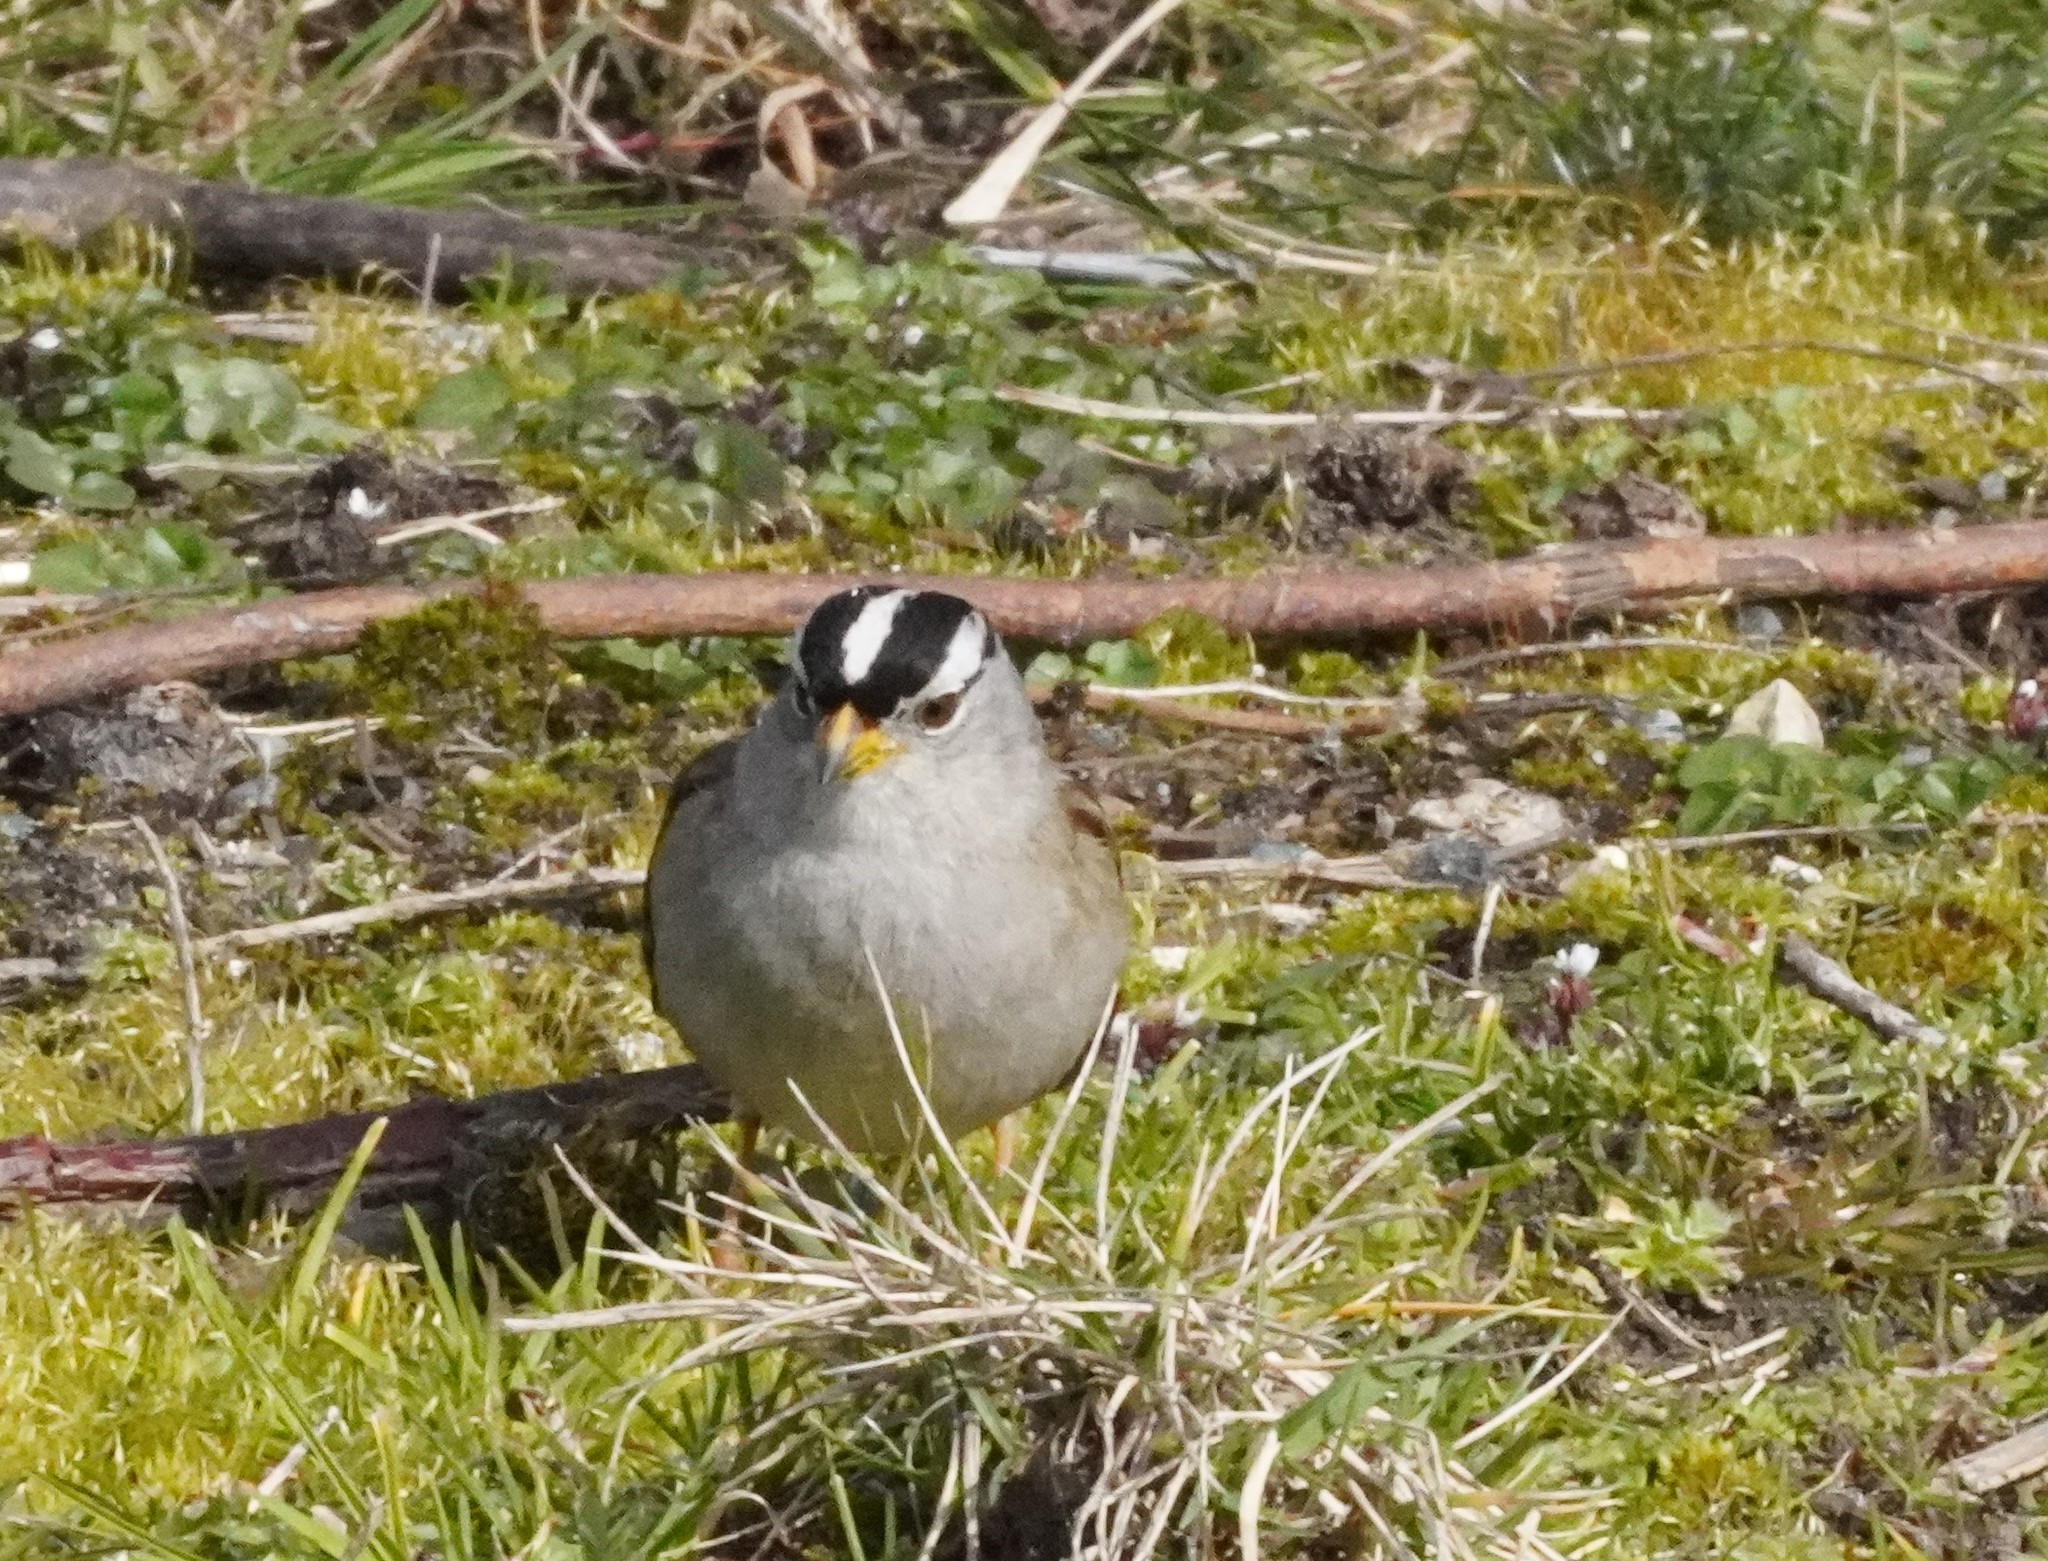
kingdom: Animalia
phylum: Chordata
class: Aves
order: Passeriformes
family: Passerellidae
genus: Zonotrichia
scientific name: Zonotrichia leucophrys
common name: White-crowned sparrow
